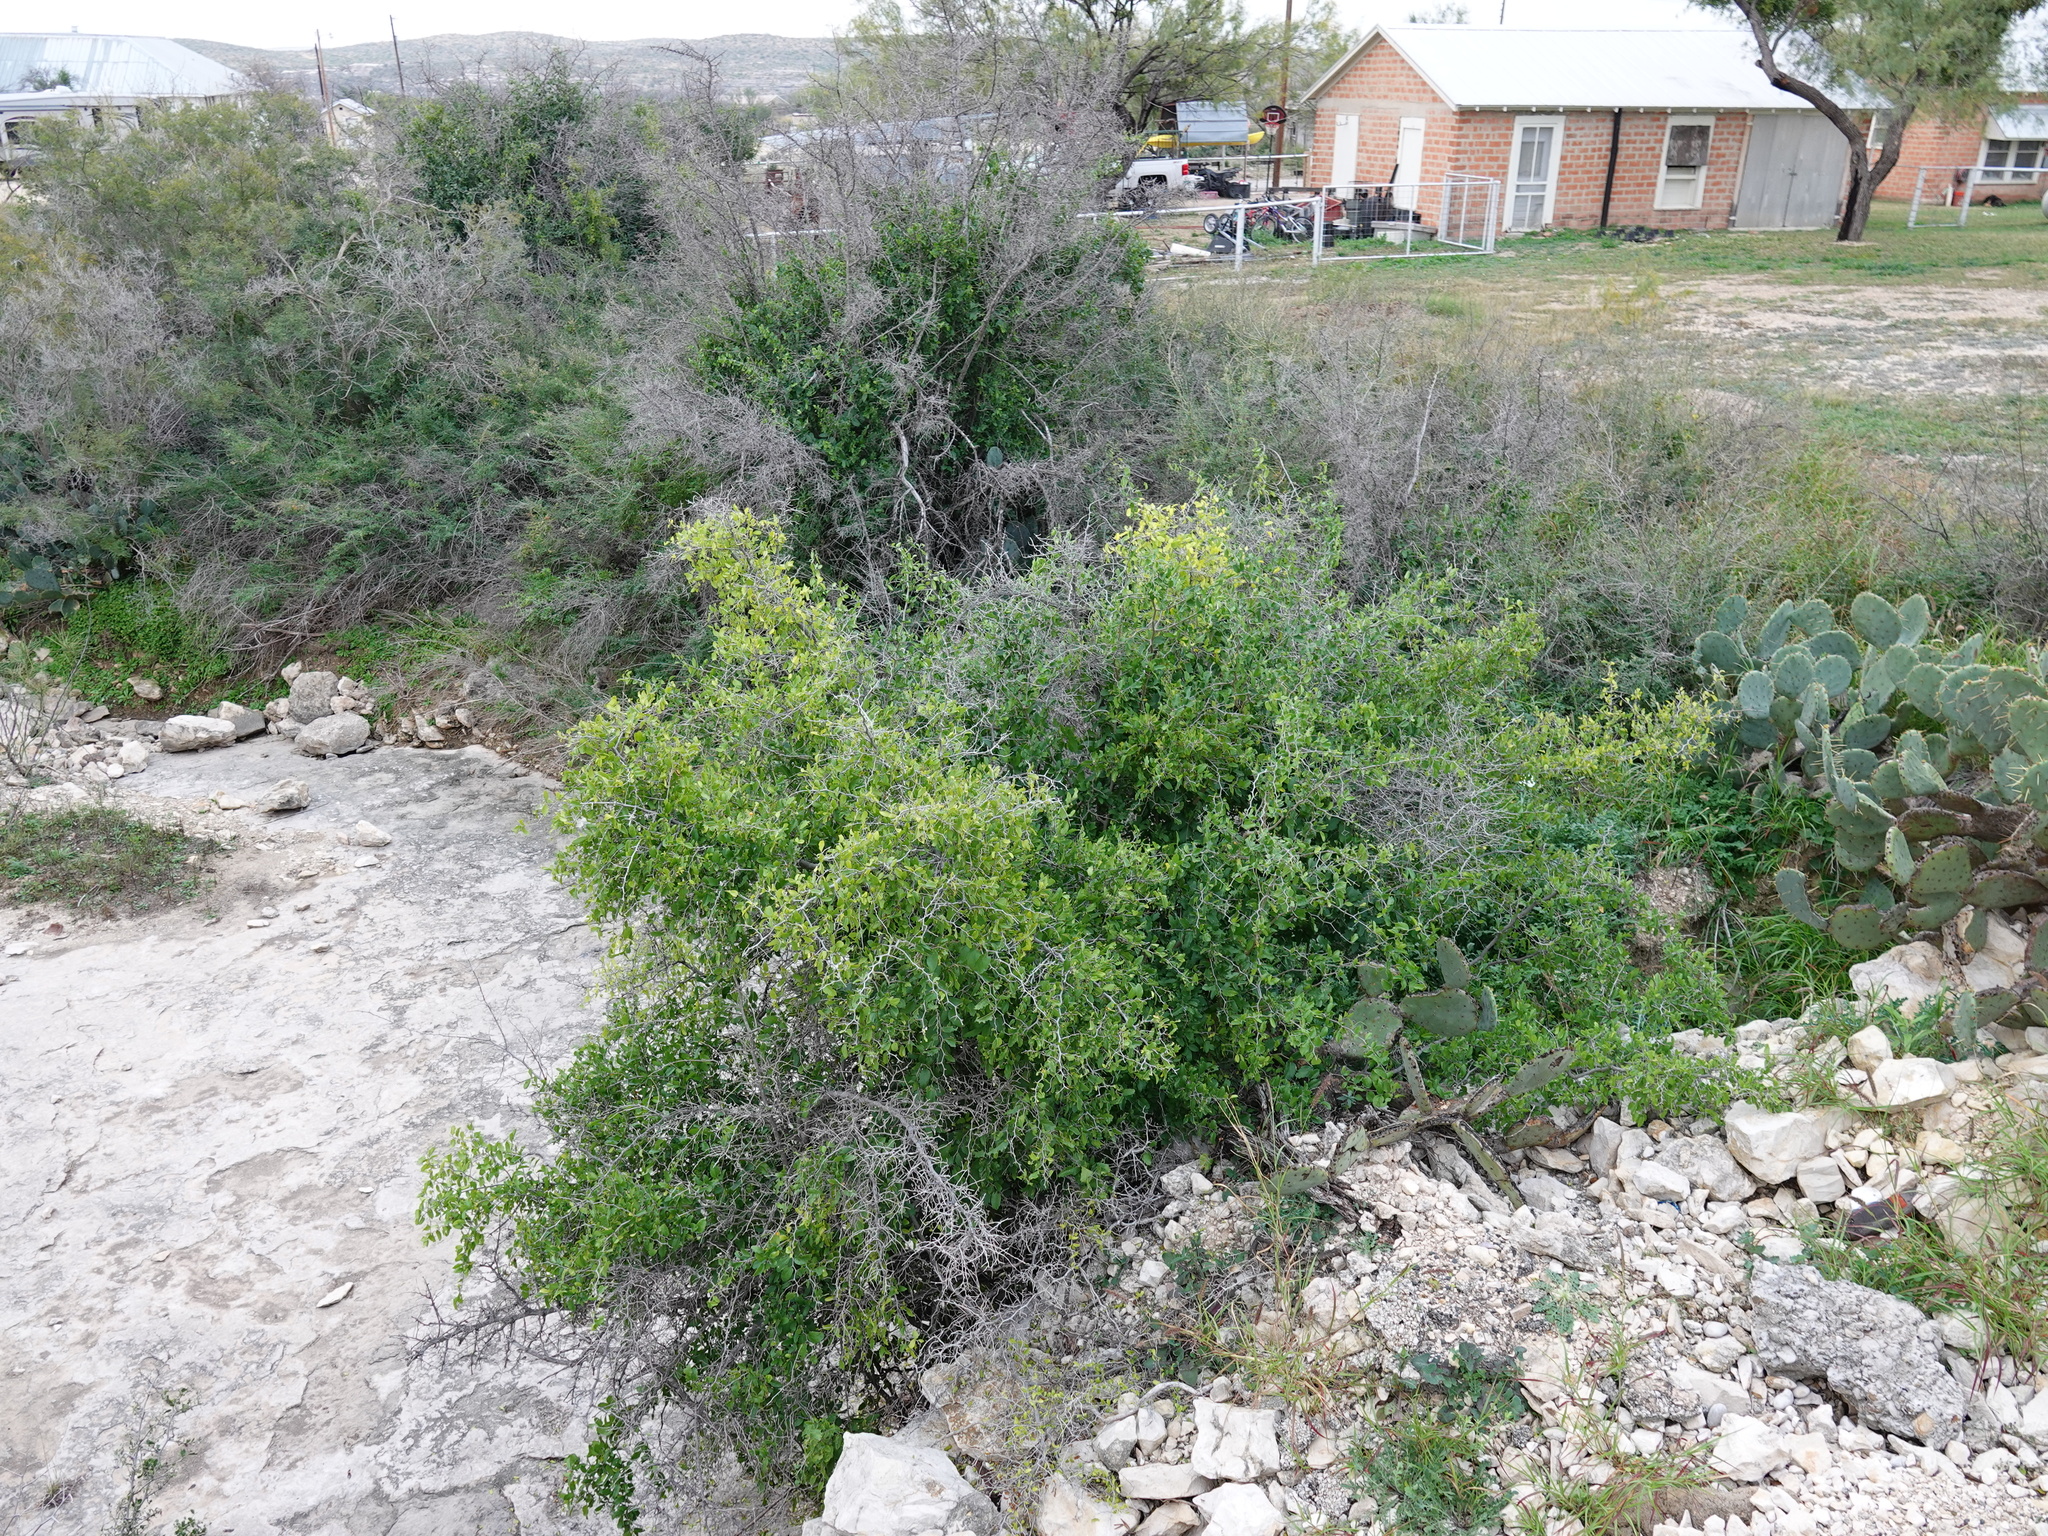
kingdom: Plantae
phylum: Tracheophyta
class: Magnoliopsida
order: Rosales
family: Cannabaceae
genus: Celtis
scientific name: Celtis pallida
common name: Desert hackberry
